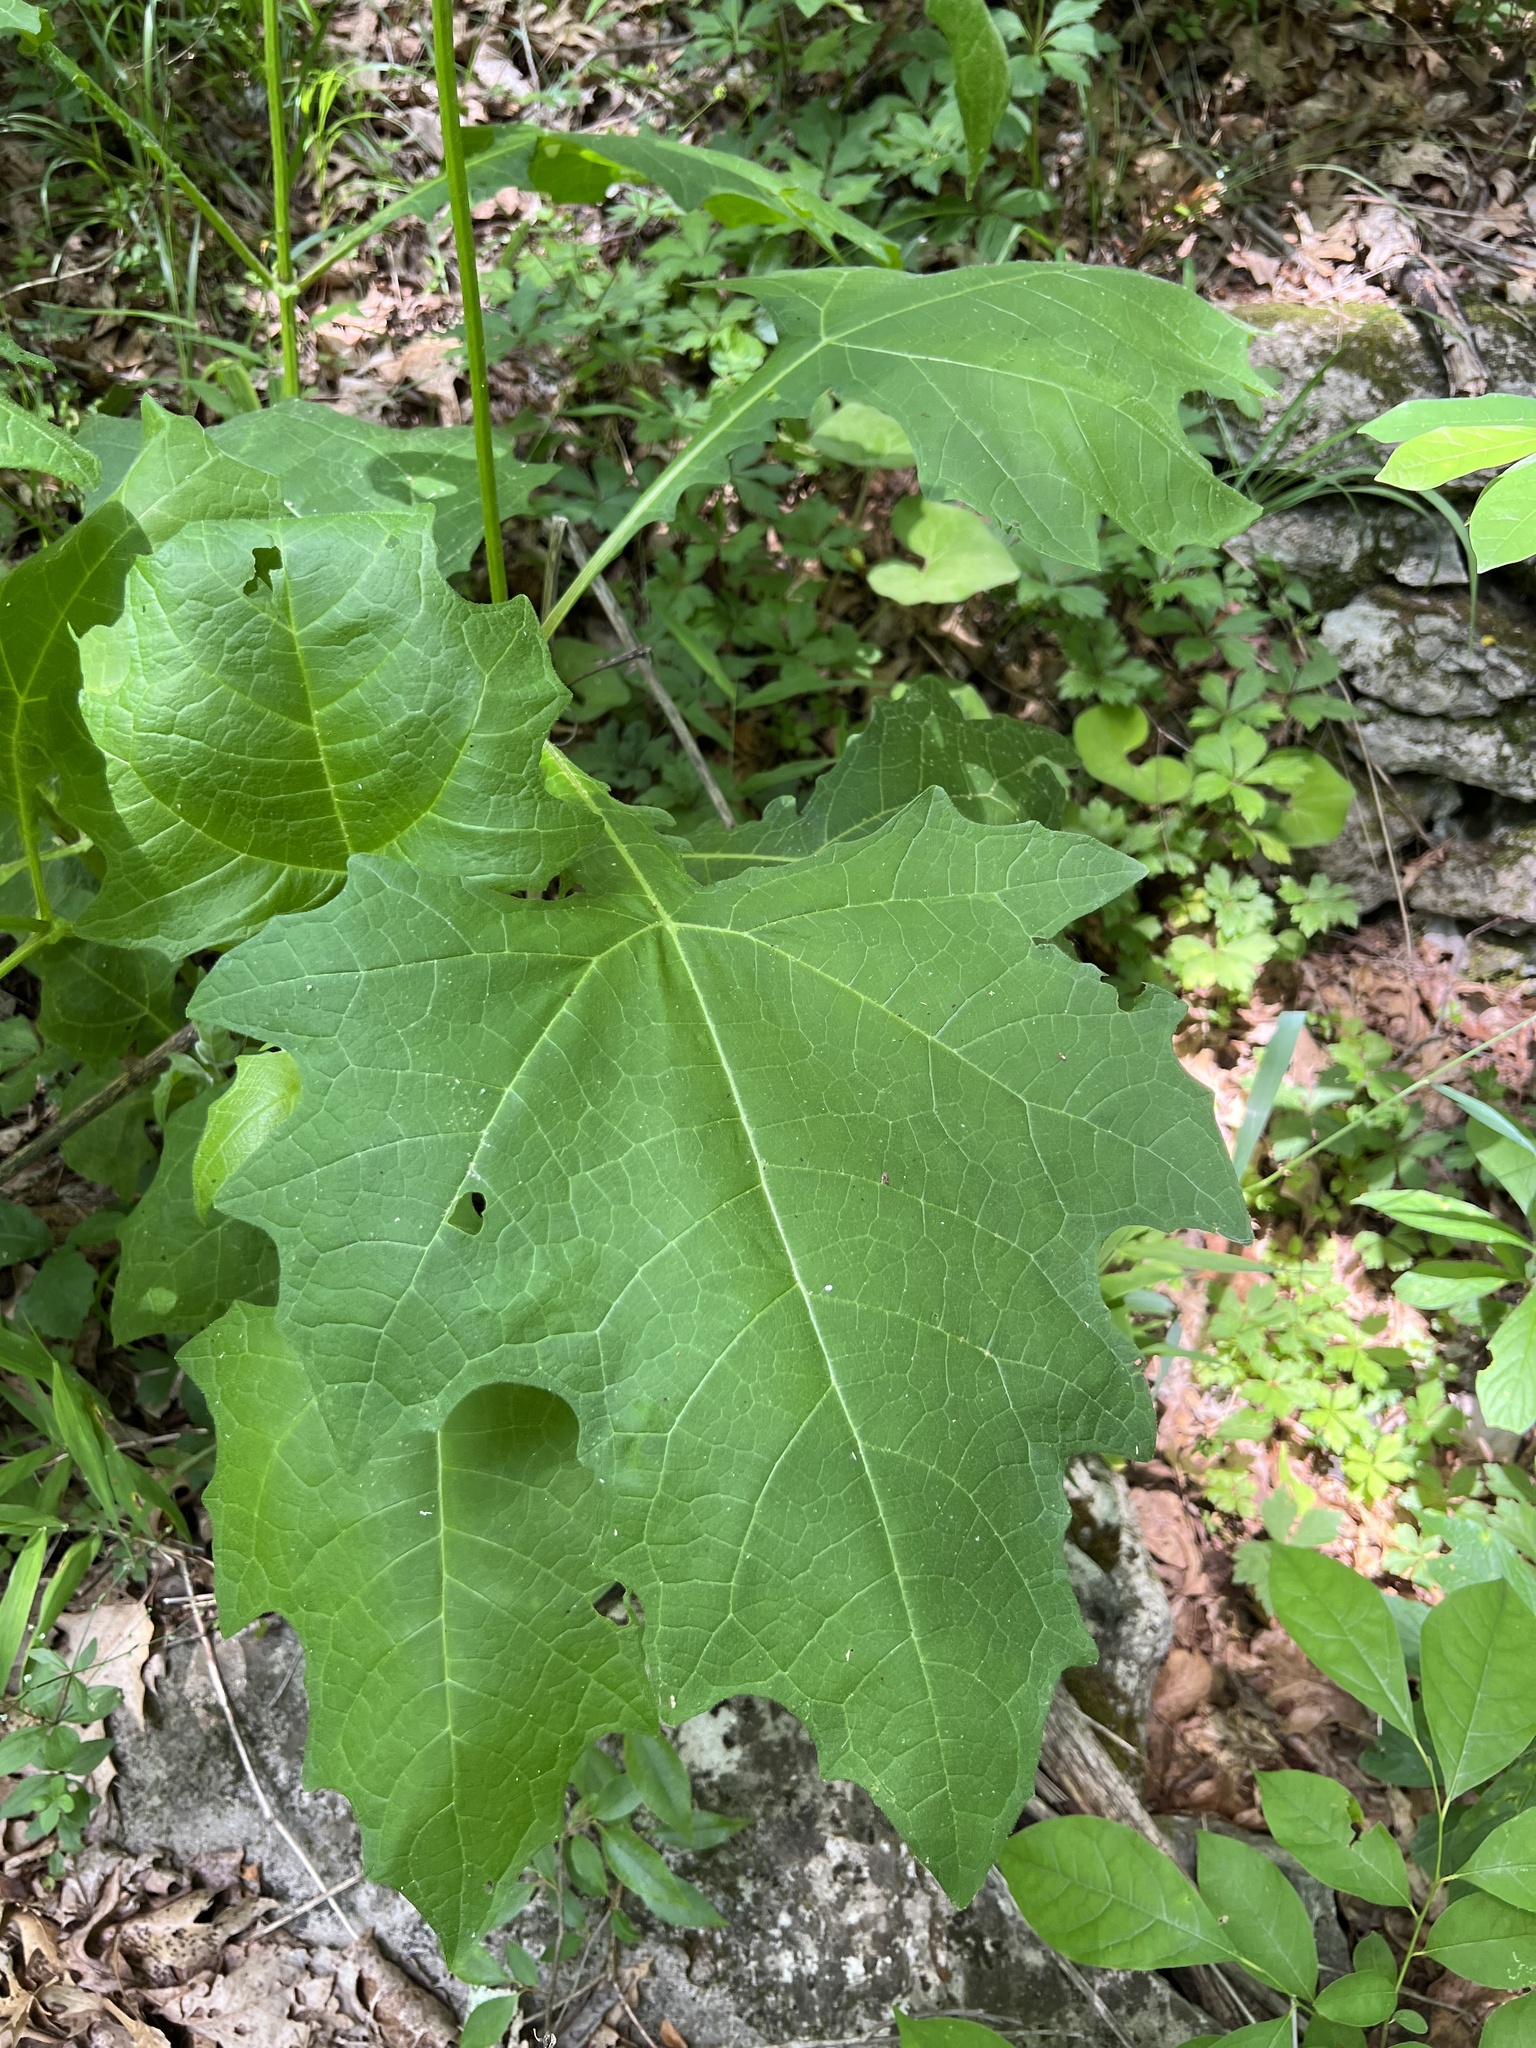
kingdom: Plantae
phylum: Tracheophyta
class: Magnoliopsida
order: Asterales
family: Asteraceae
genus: Smallanthus
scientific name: Smallanthus uvedalia
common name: Bear's-foot
